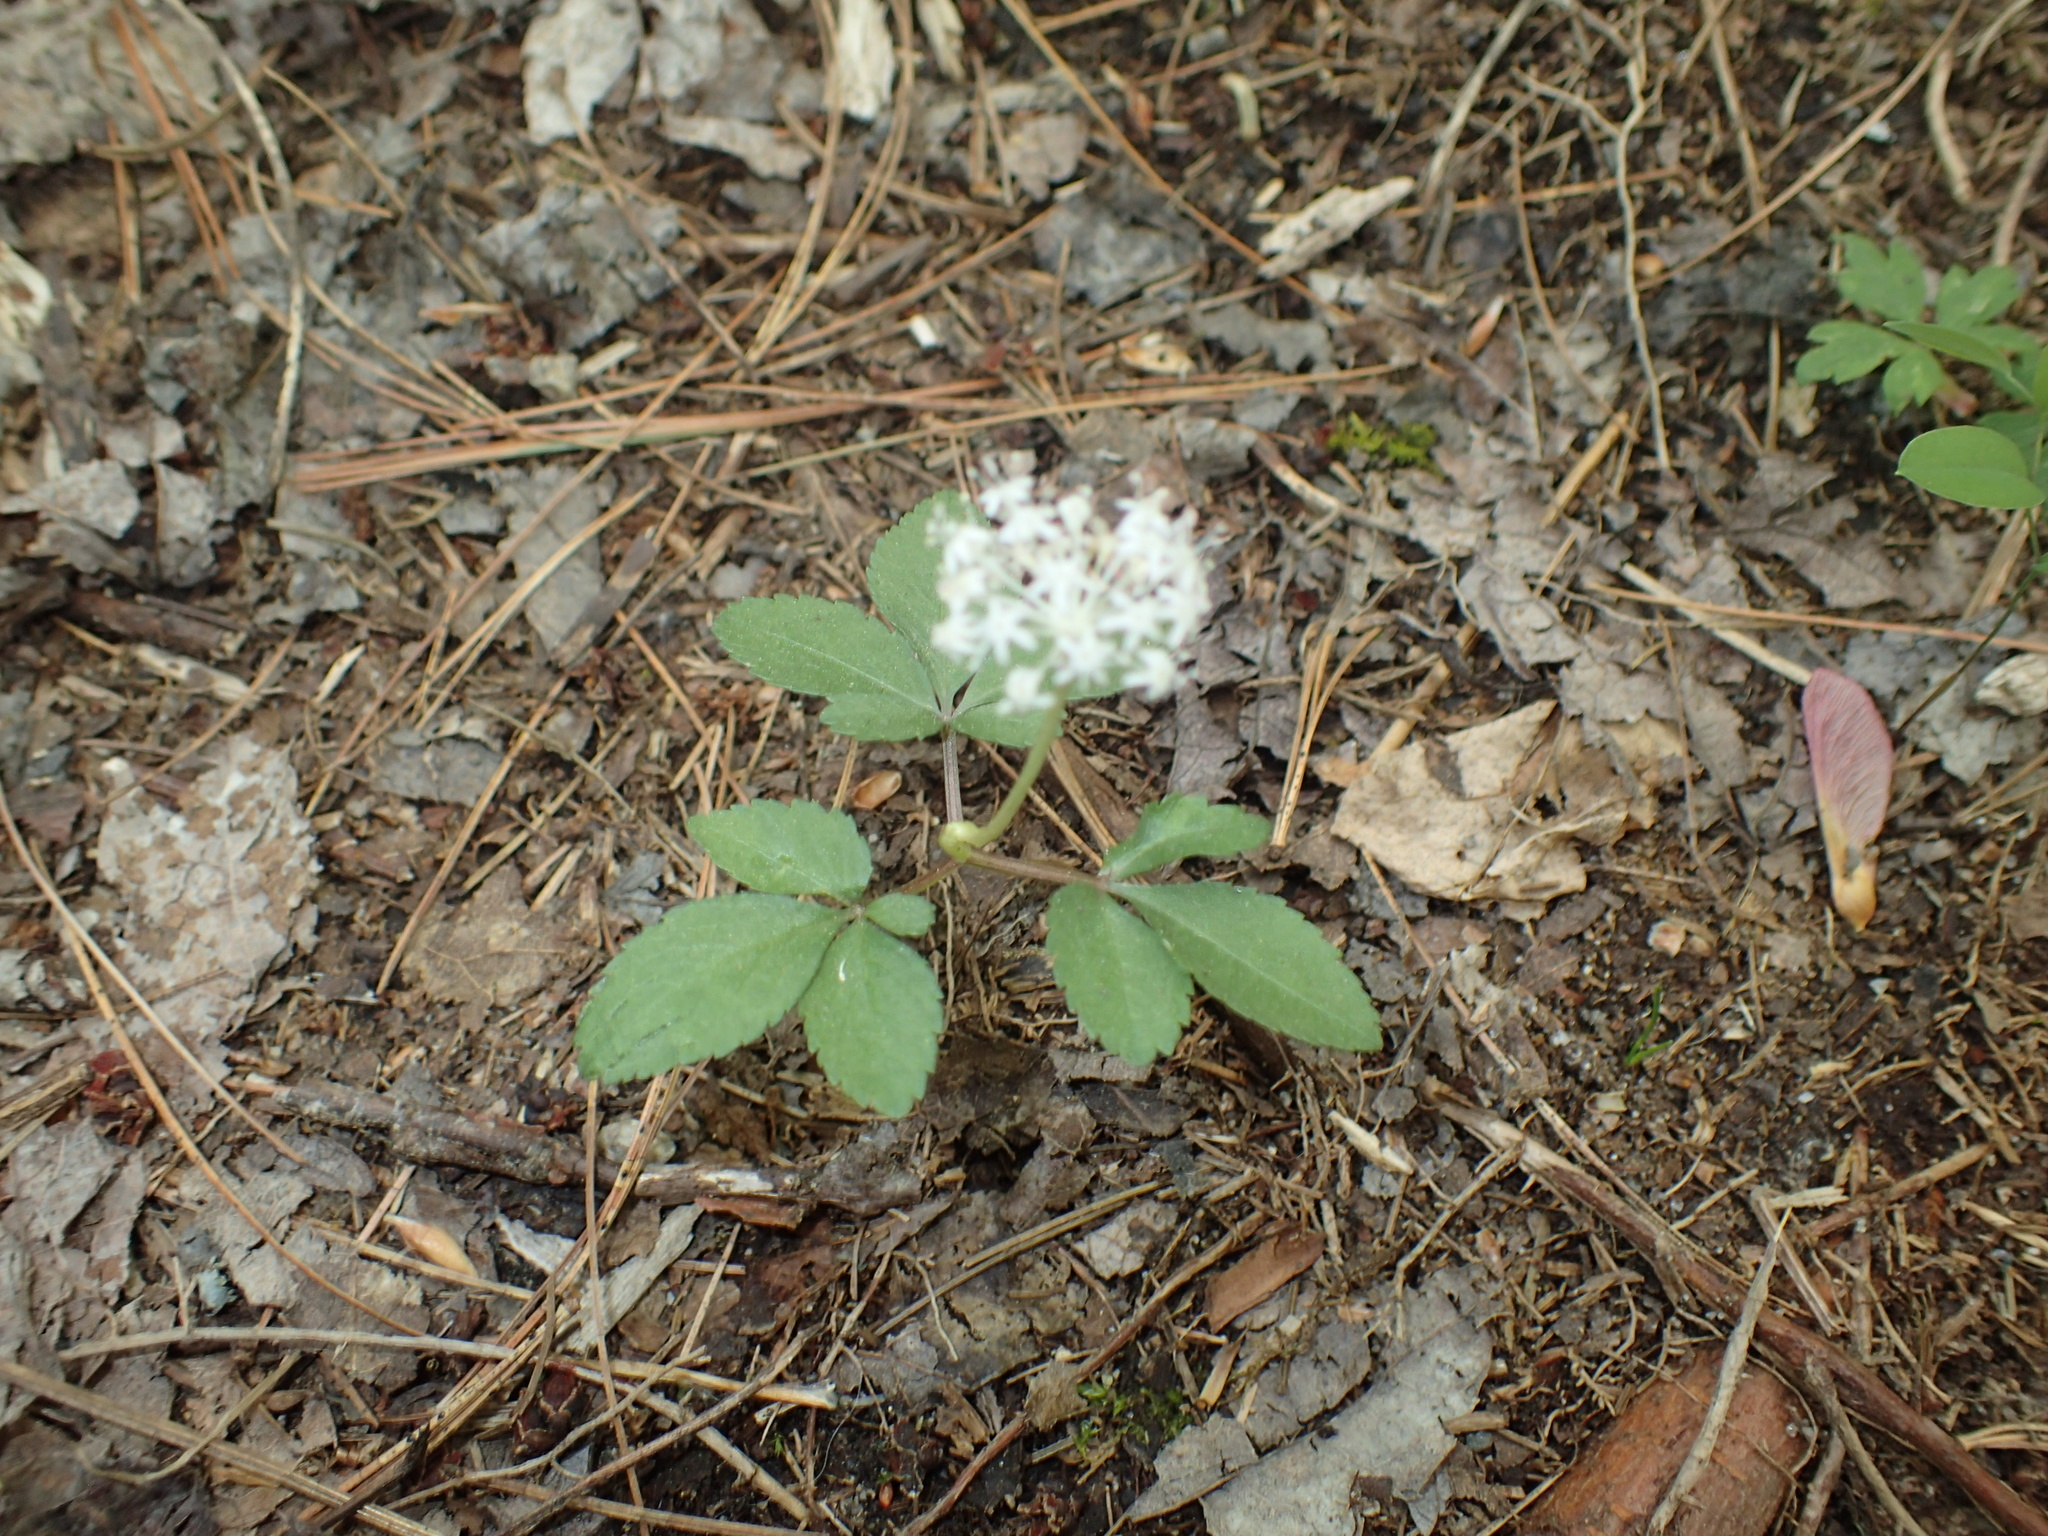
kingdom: Plantae
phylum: Tracheophyta
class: Magnoliopsida
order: Apiales
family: Araliaceae
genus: Panax
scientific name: Panax trifolius
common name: Dwarf ginseng
